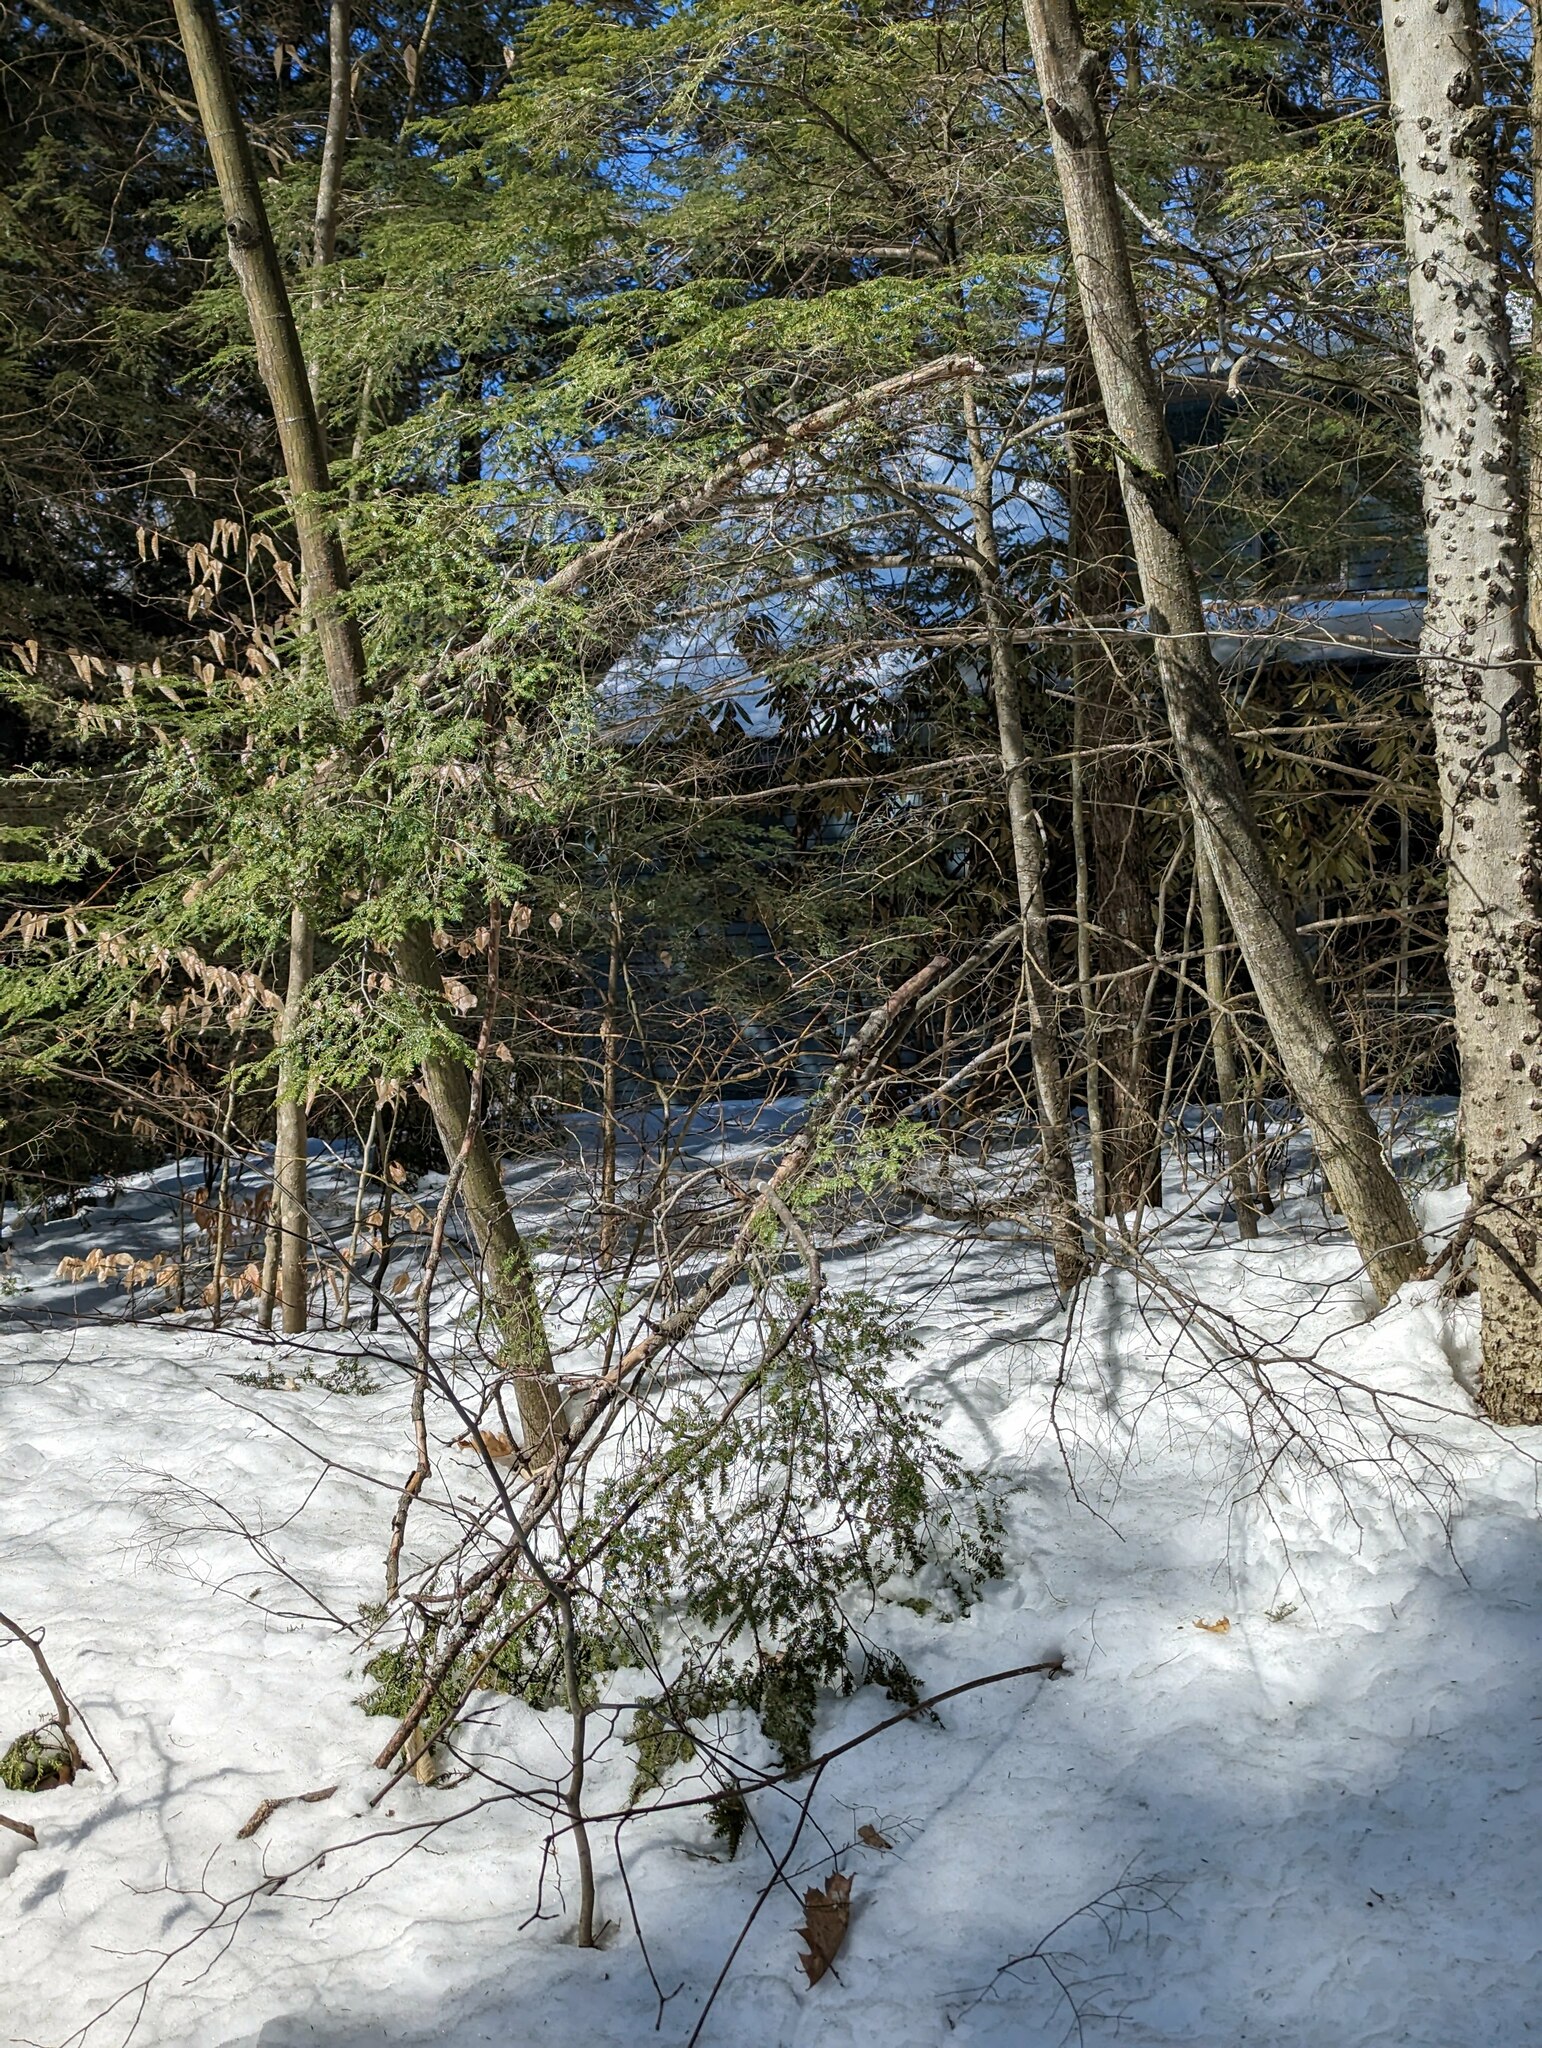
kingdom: Plantae
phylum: Tracheophyta
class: Pinopsida
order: Pinales
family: Pinaceae
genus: Tsuga
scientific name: Tsuga canadensis
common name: Eastern hemlock
